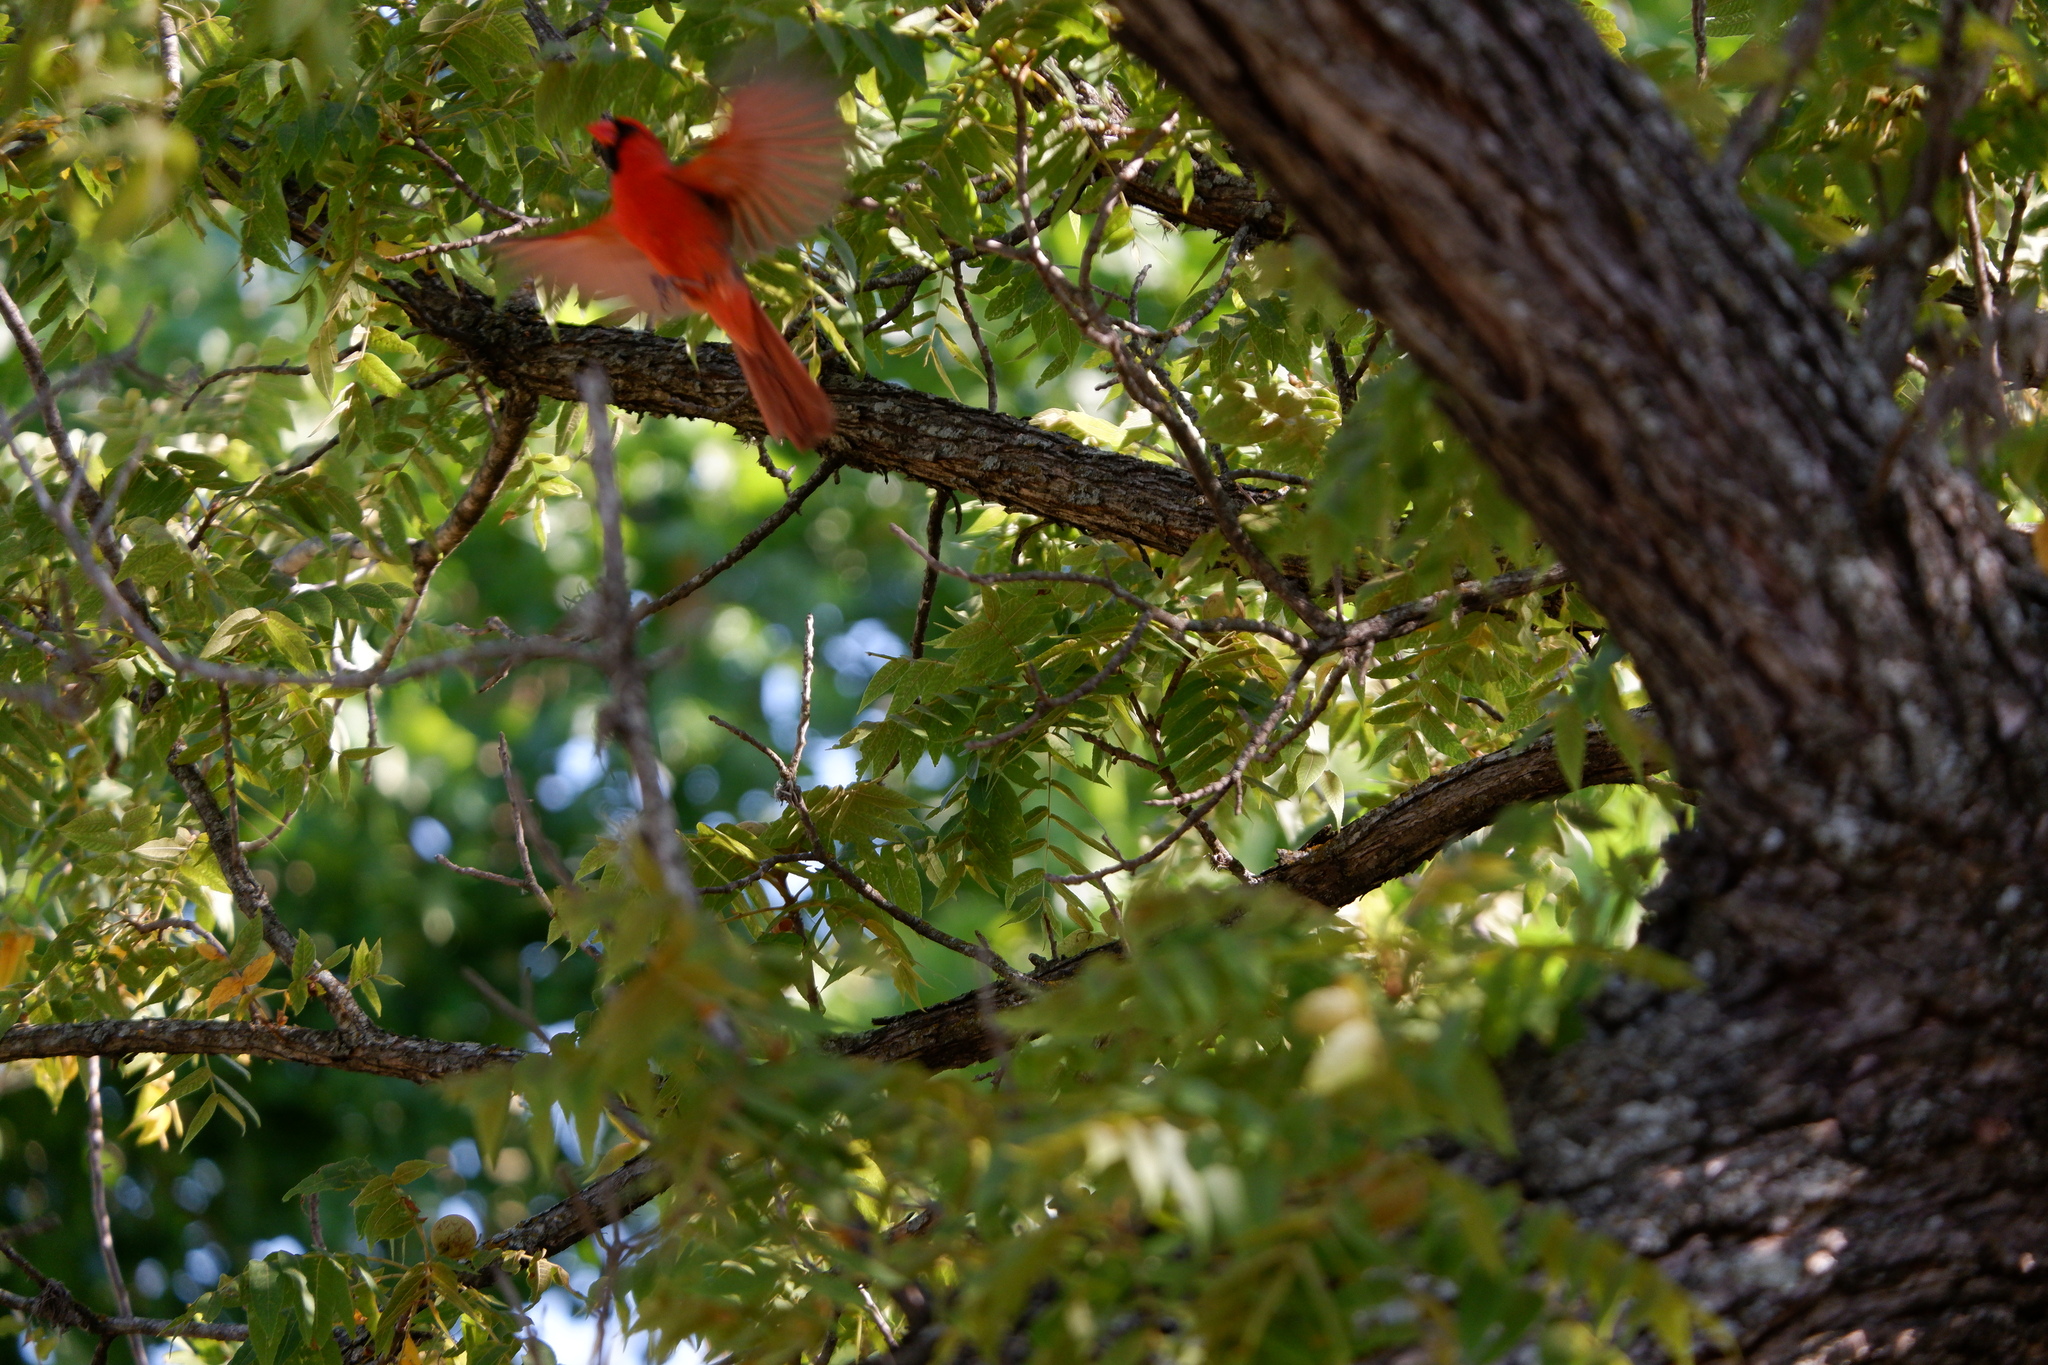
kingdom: Animalia
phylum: Chordata
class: Aves
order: Passeriformes
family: Cardinalidae
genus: Cardinalis
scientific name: Cardinalis cardinalis
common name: Northern cardinal
